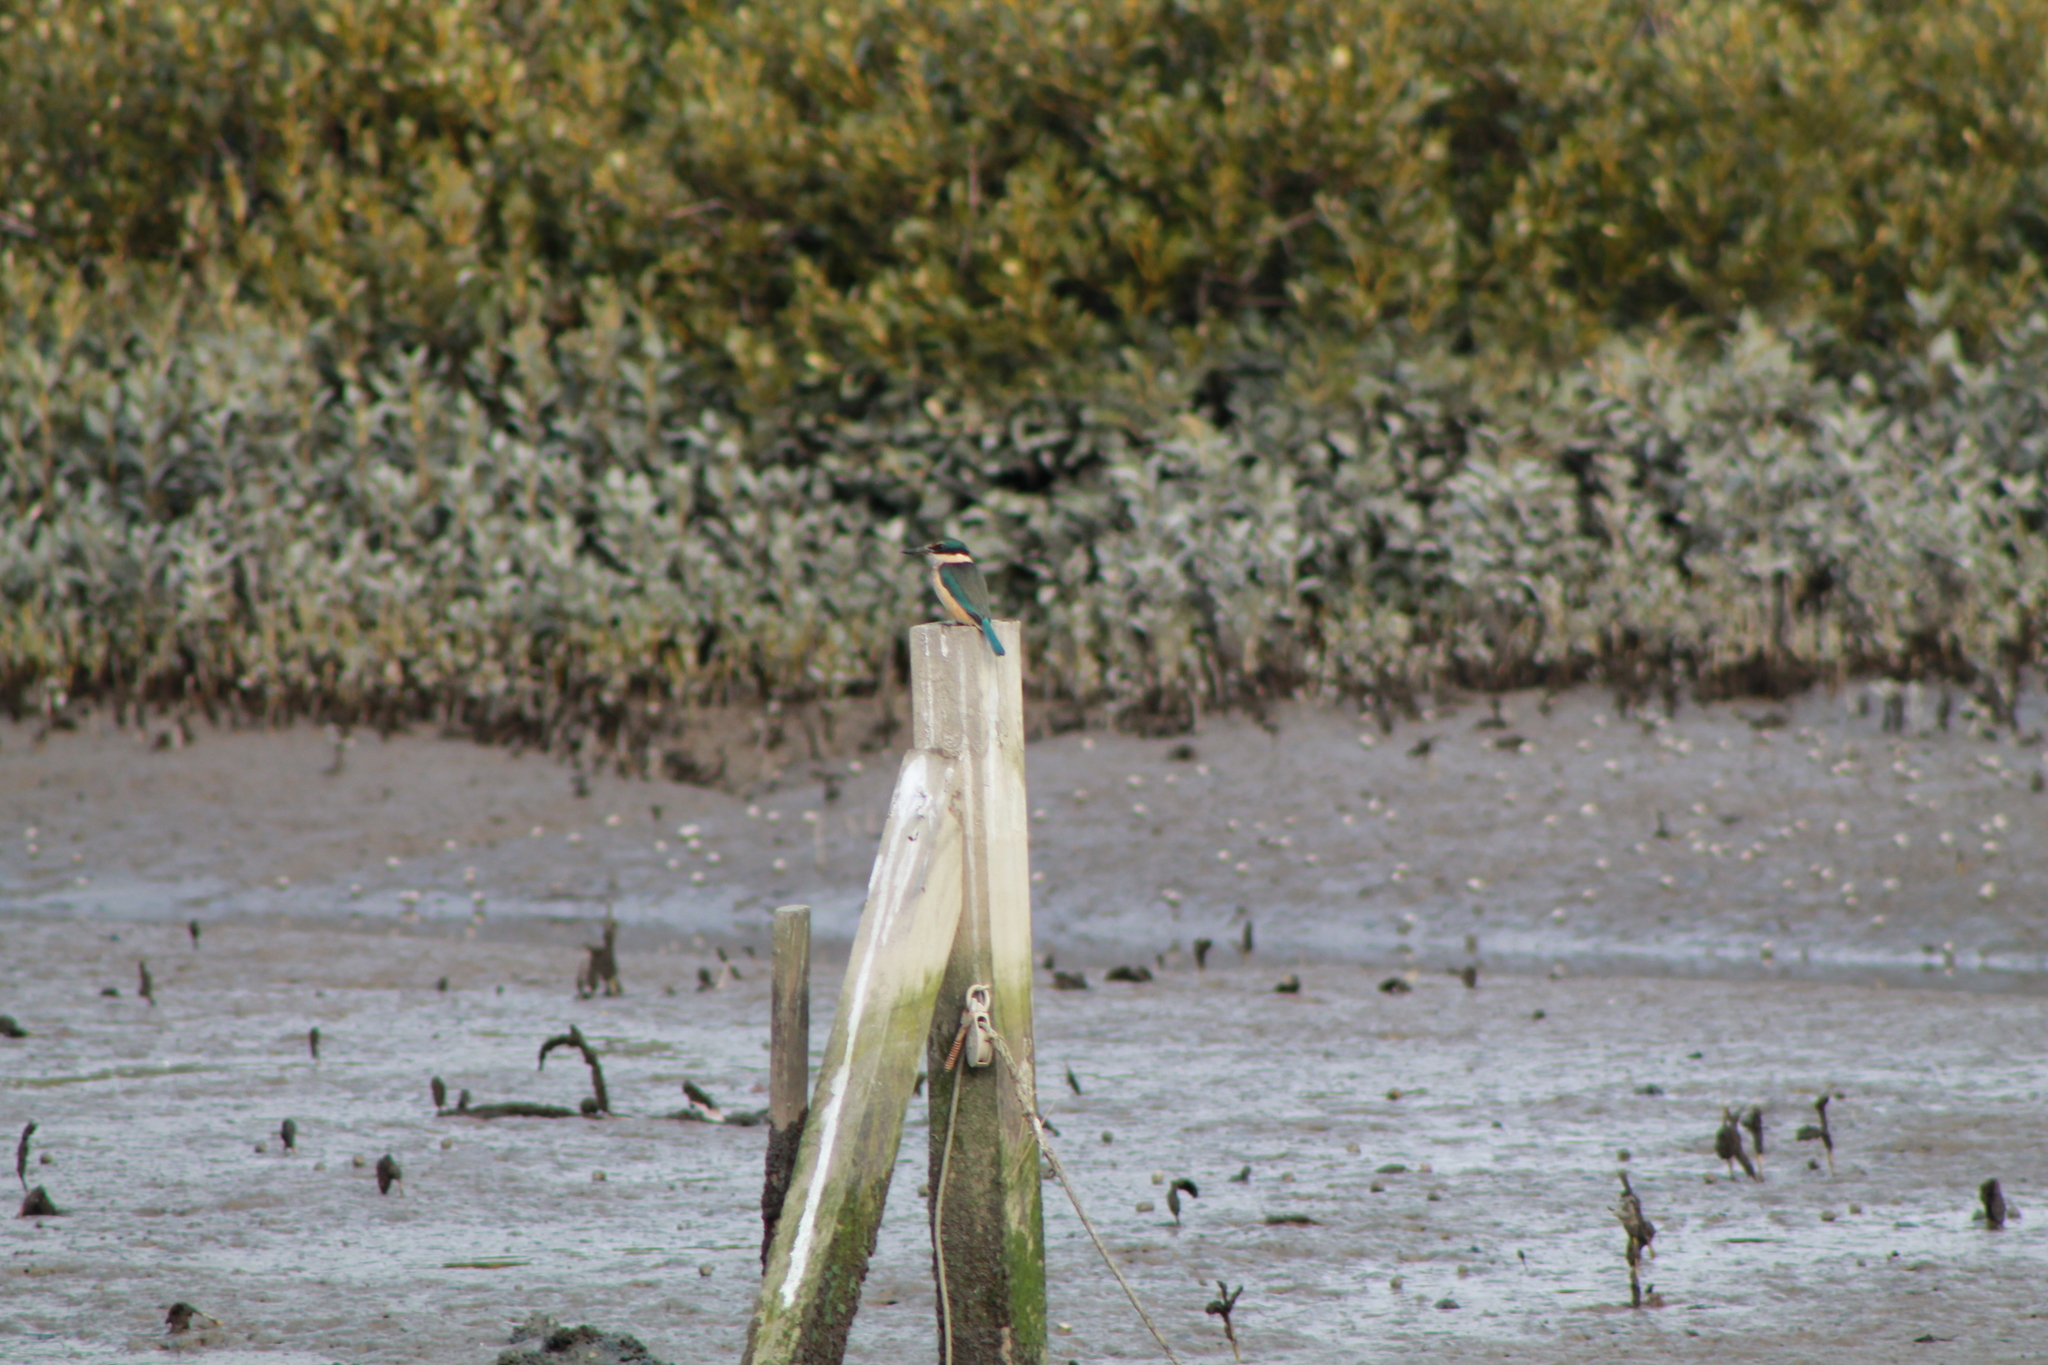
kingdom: Animalia
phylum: Chordata
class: Aves
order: Coraciiformes
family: Alcedinidae
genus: Todiramphus
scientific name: Todiramphus sanctus
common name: Sacred kingfisher
